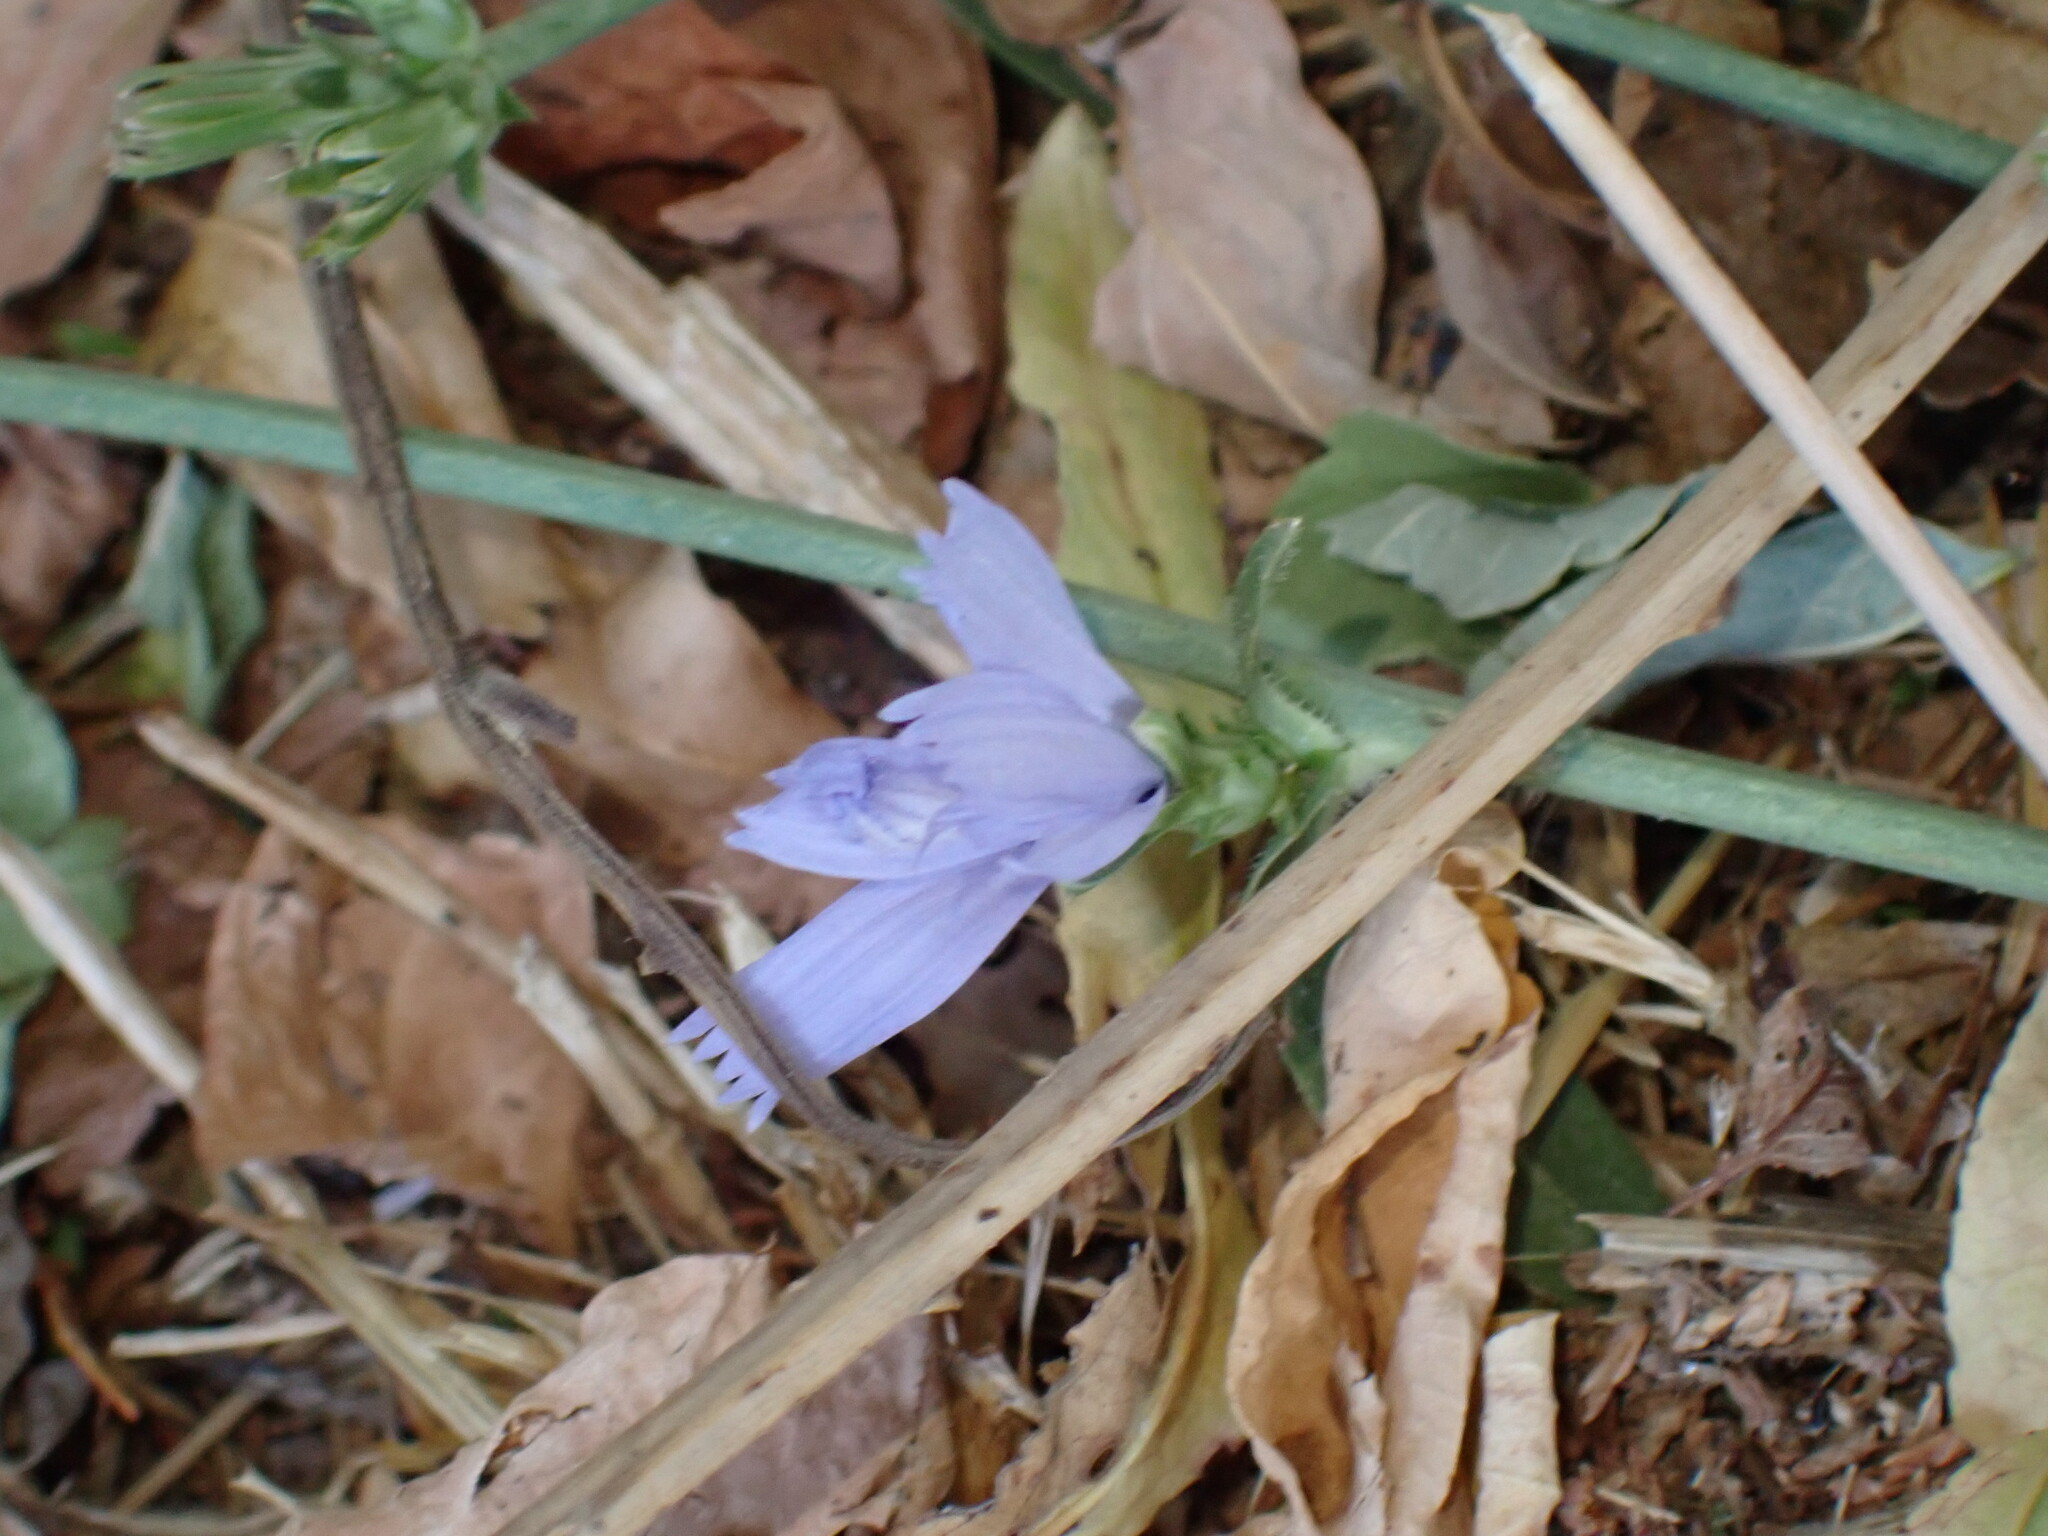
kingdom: Plantae
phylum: Tracheophyta
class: Magnoliopsida
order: Asterales
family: Asteraceae
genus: Cichorium
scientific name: Cichorium intybus
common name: Chicory
